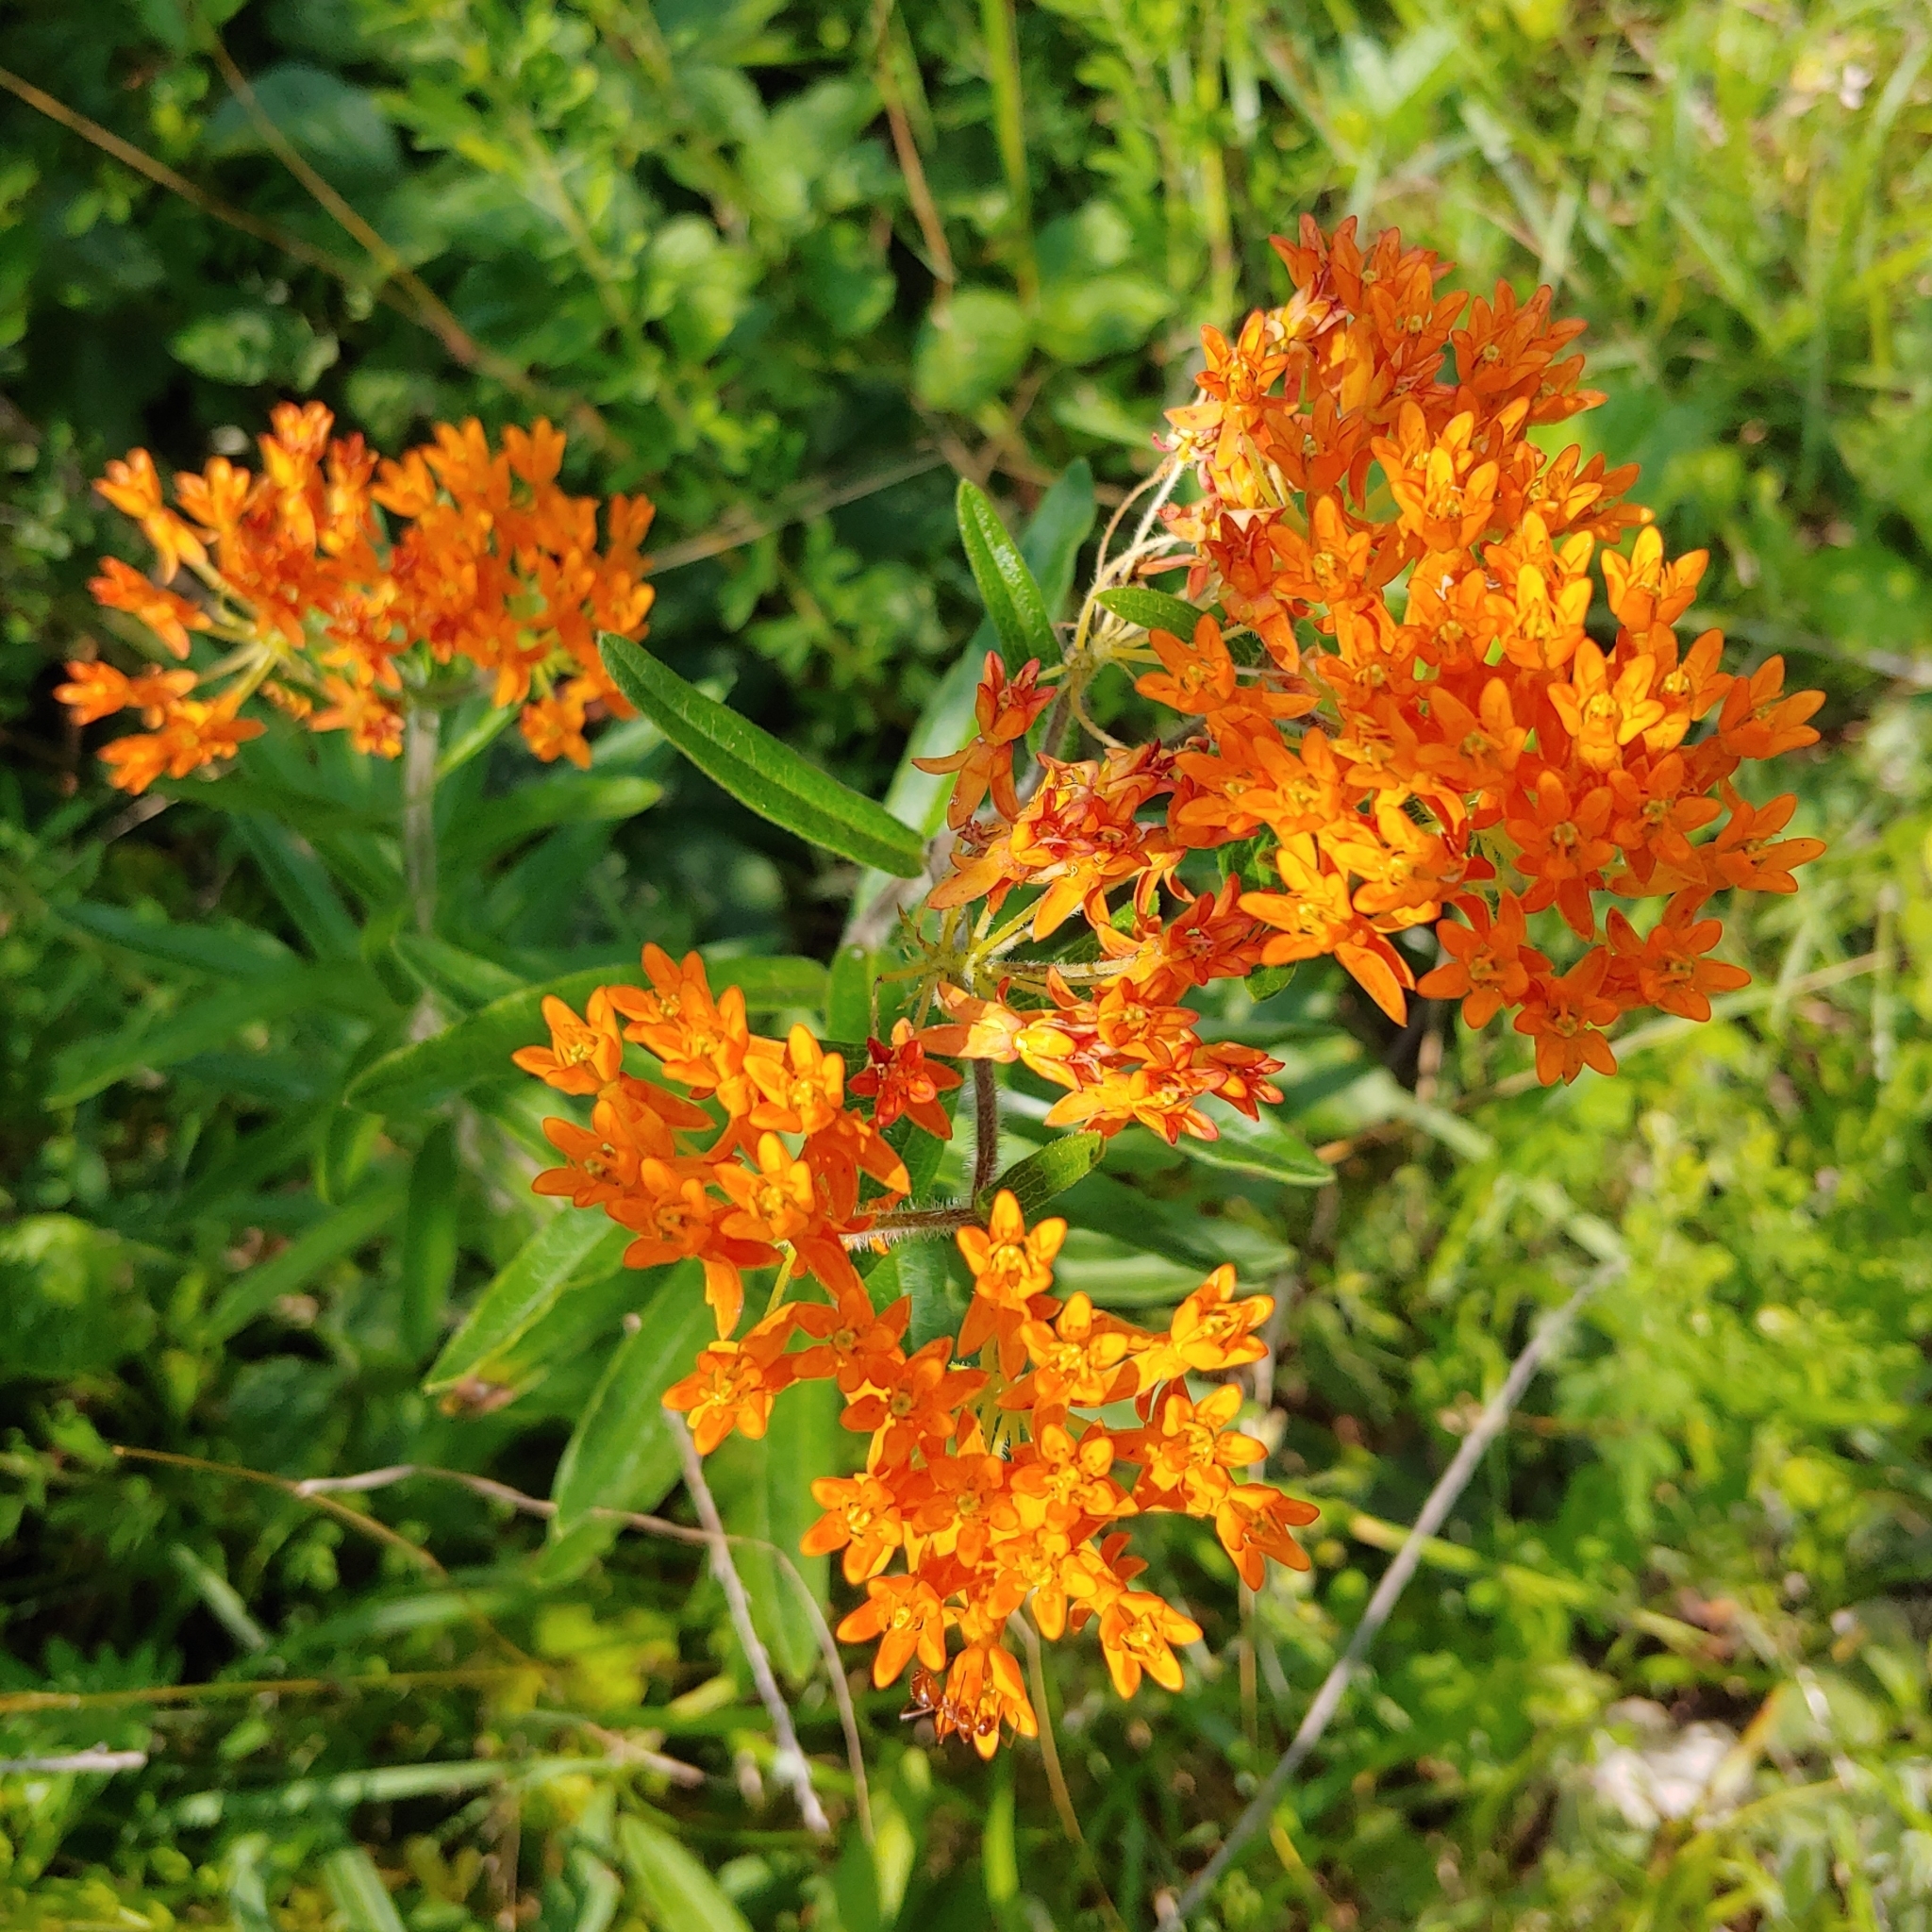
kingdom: Plantae
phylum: Tracheophyta
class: Magnoliopsida
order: Gentianales
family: Apocynaceae
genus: Asclepias
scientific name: Asclepias tuberosa
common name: Butterfly milkweed
